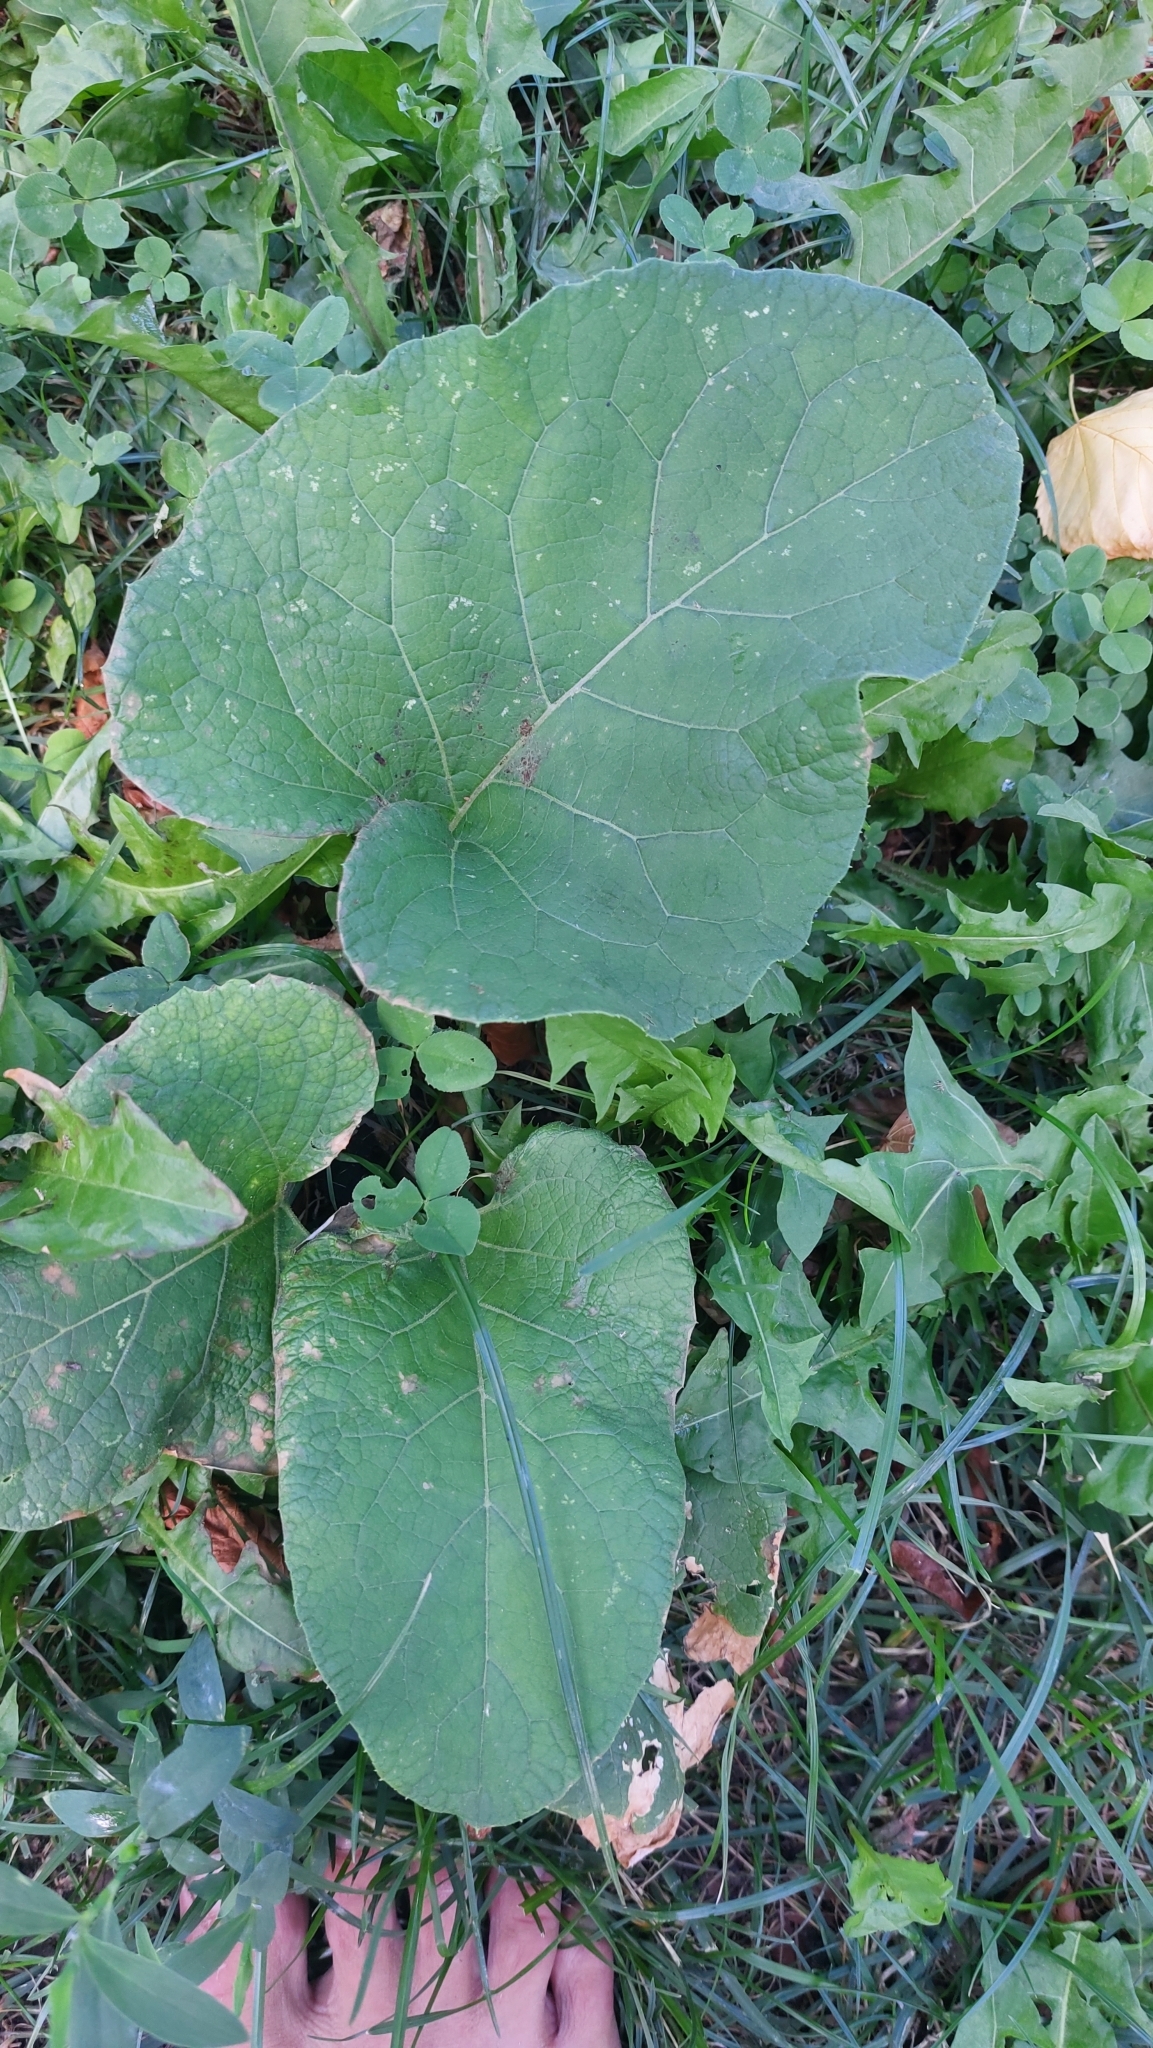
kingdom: Plantae
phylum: Tracheophyta
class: Magnoliopsida
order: Asterales
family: Asteraceae
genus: Arctium
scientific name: Arctium
